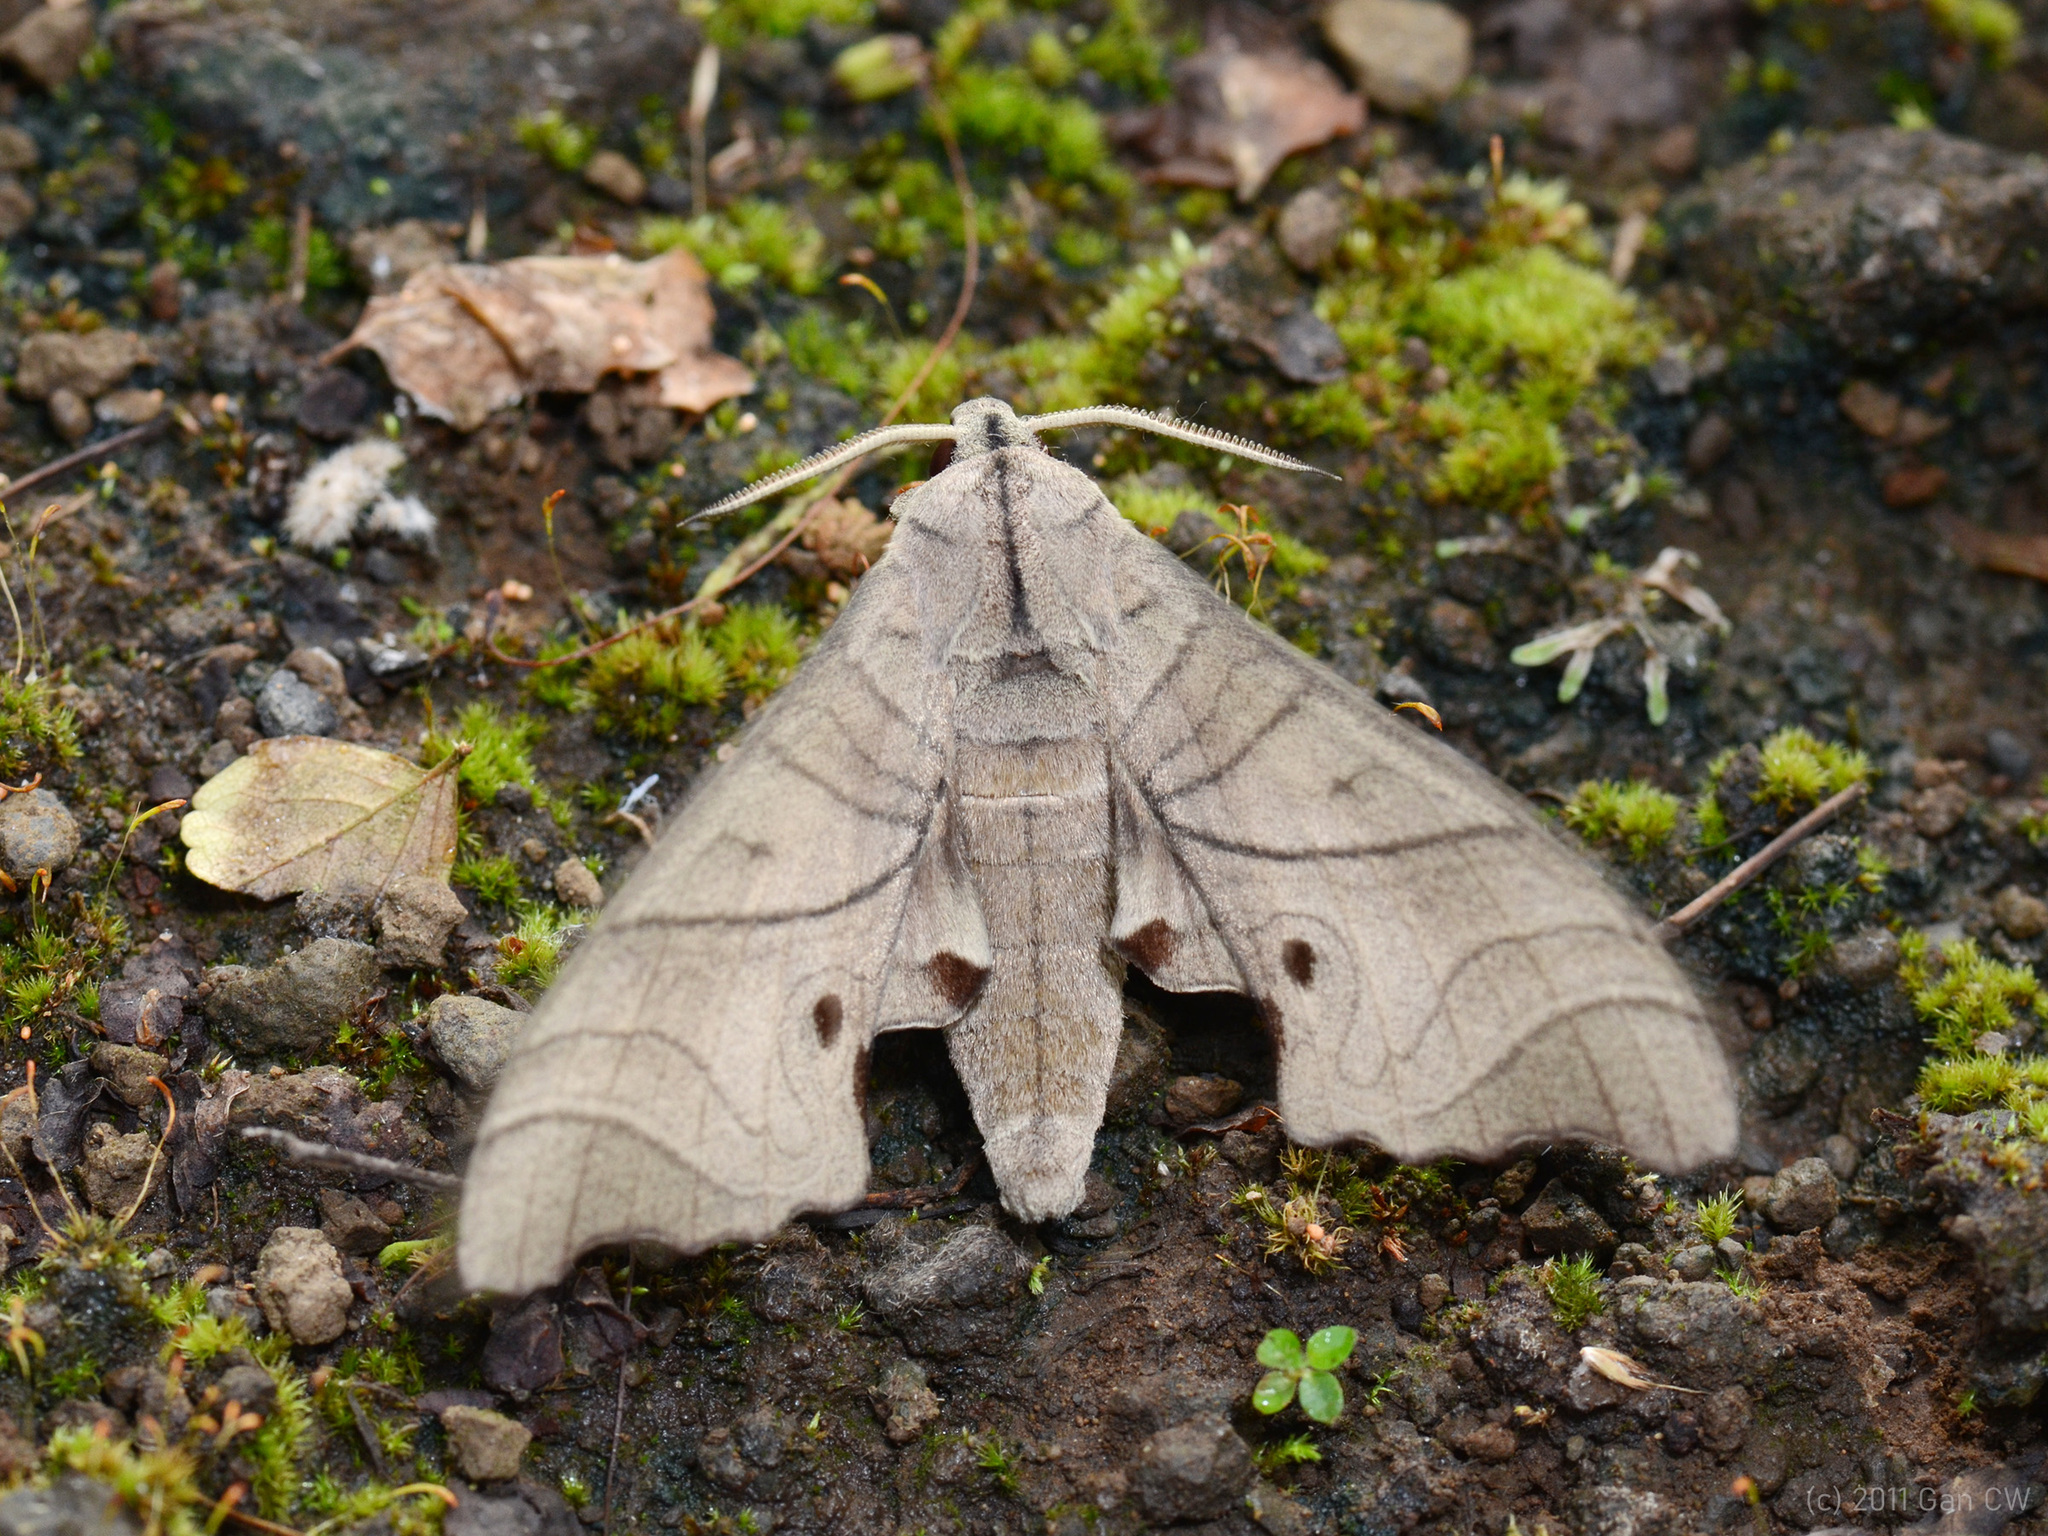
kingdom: Animalia
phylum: Arthropoda
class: Insecta
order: Lepidoptera
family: Sphingidae
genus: Marumba
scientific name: Marumba amboinicus
